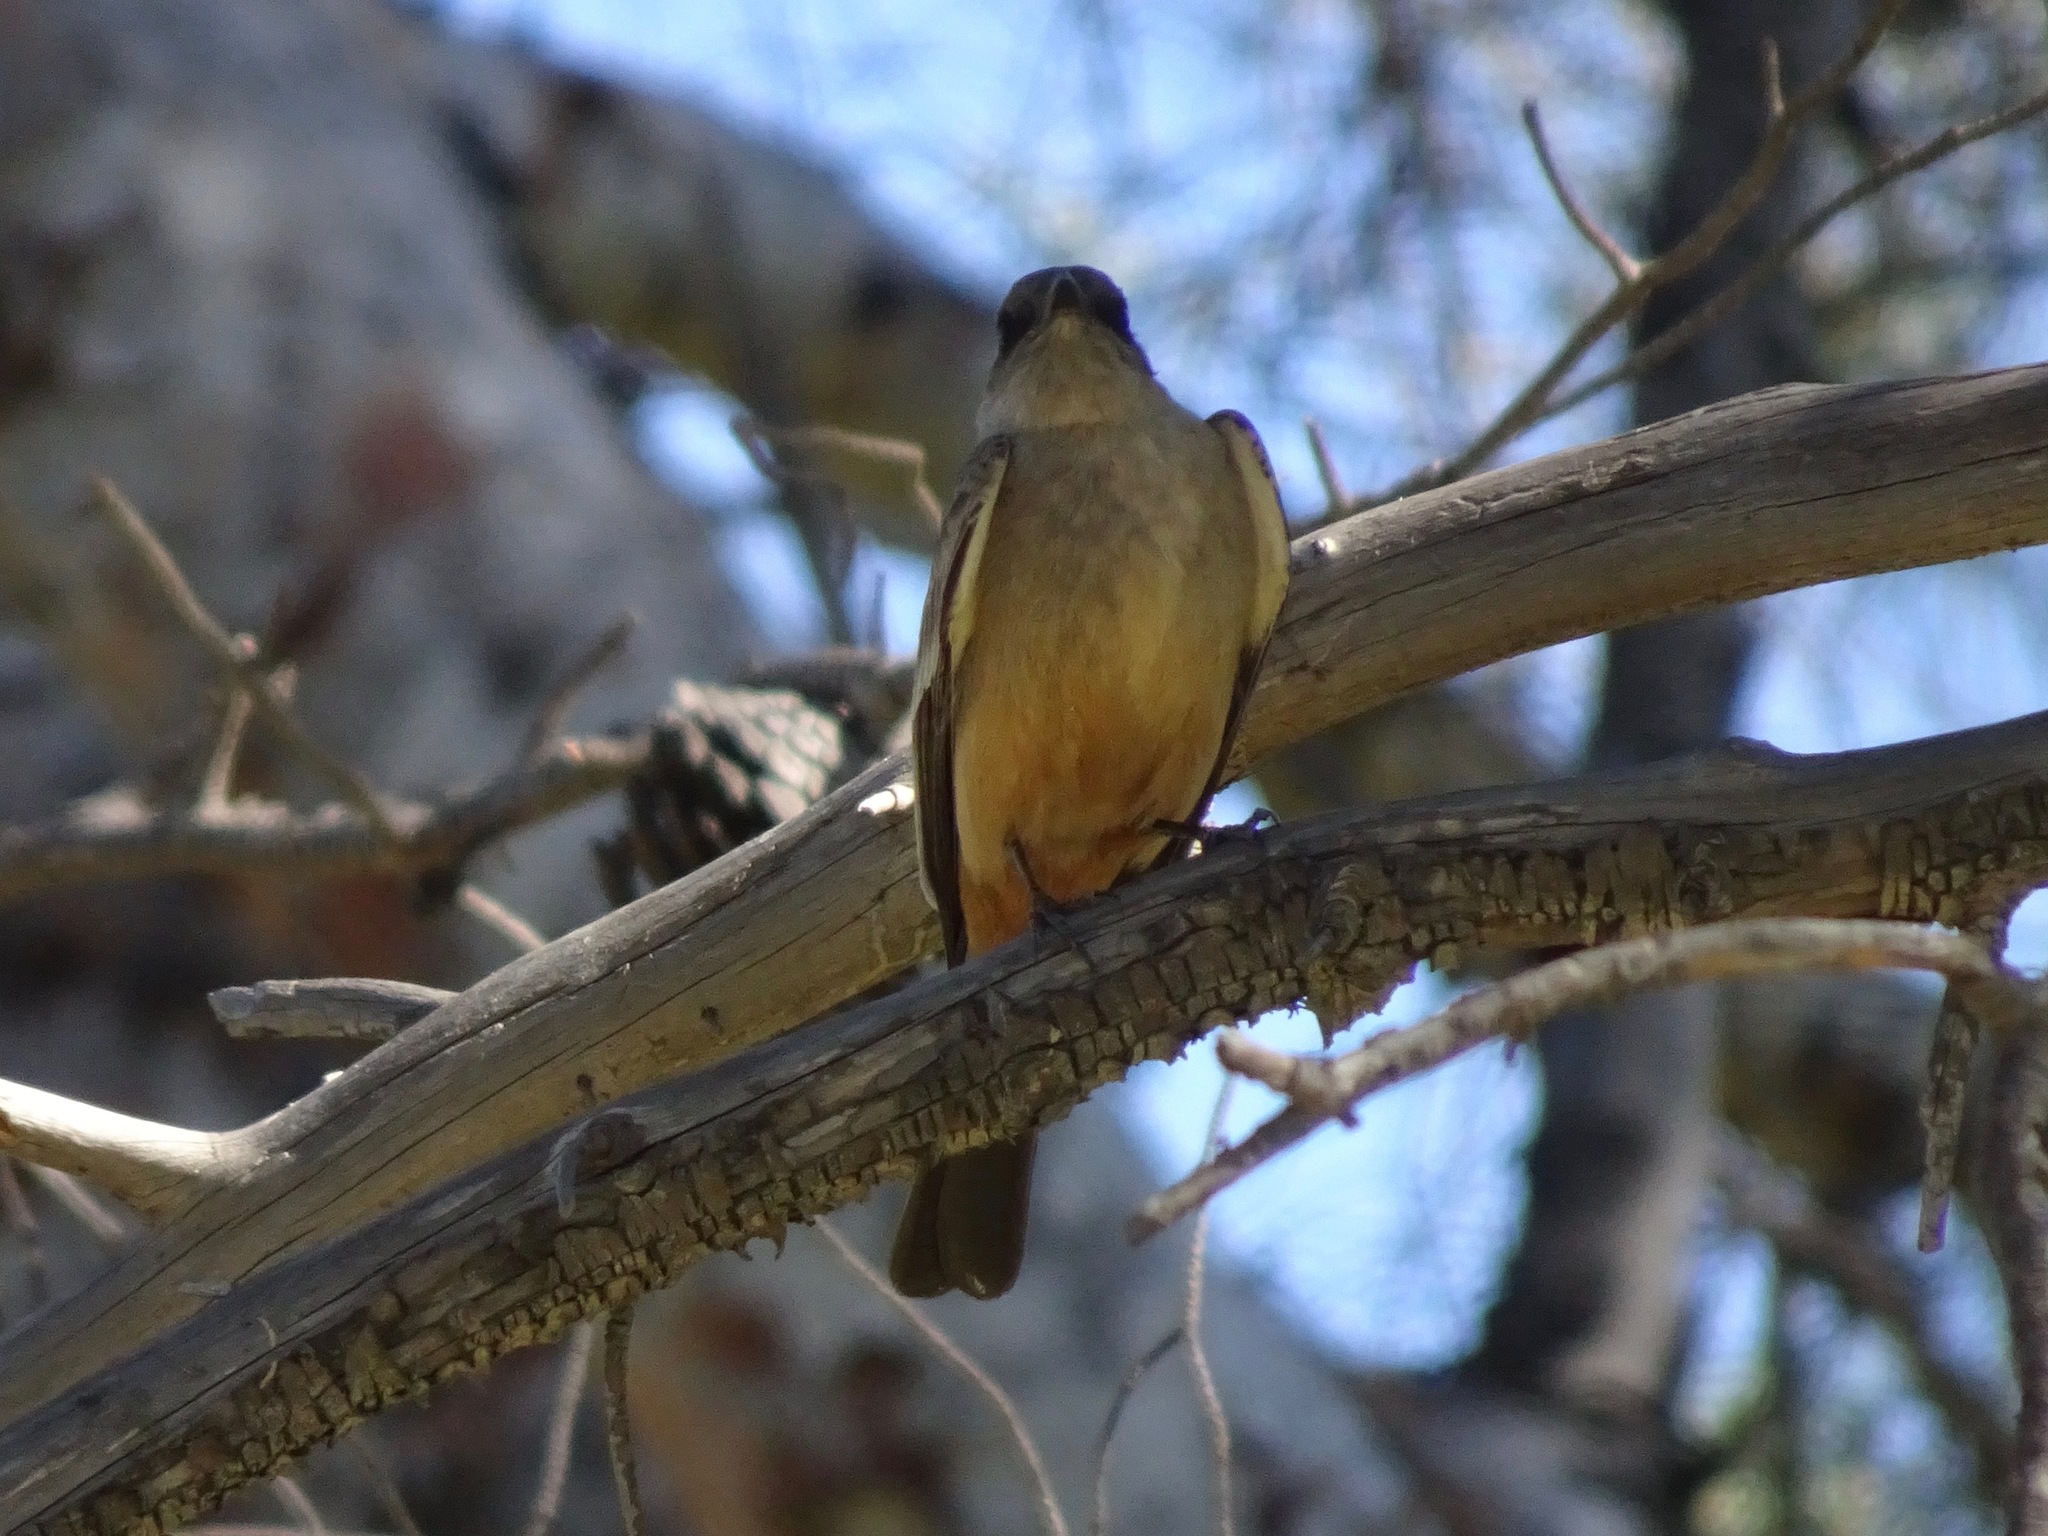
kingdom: Animalia
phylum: Chordata
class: Aves
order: Passeriformes
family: Tyrannidae
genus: Sayornis
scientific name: Sayornis saya
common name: Say's phoebe
